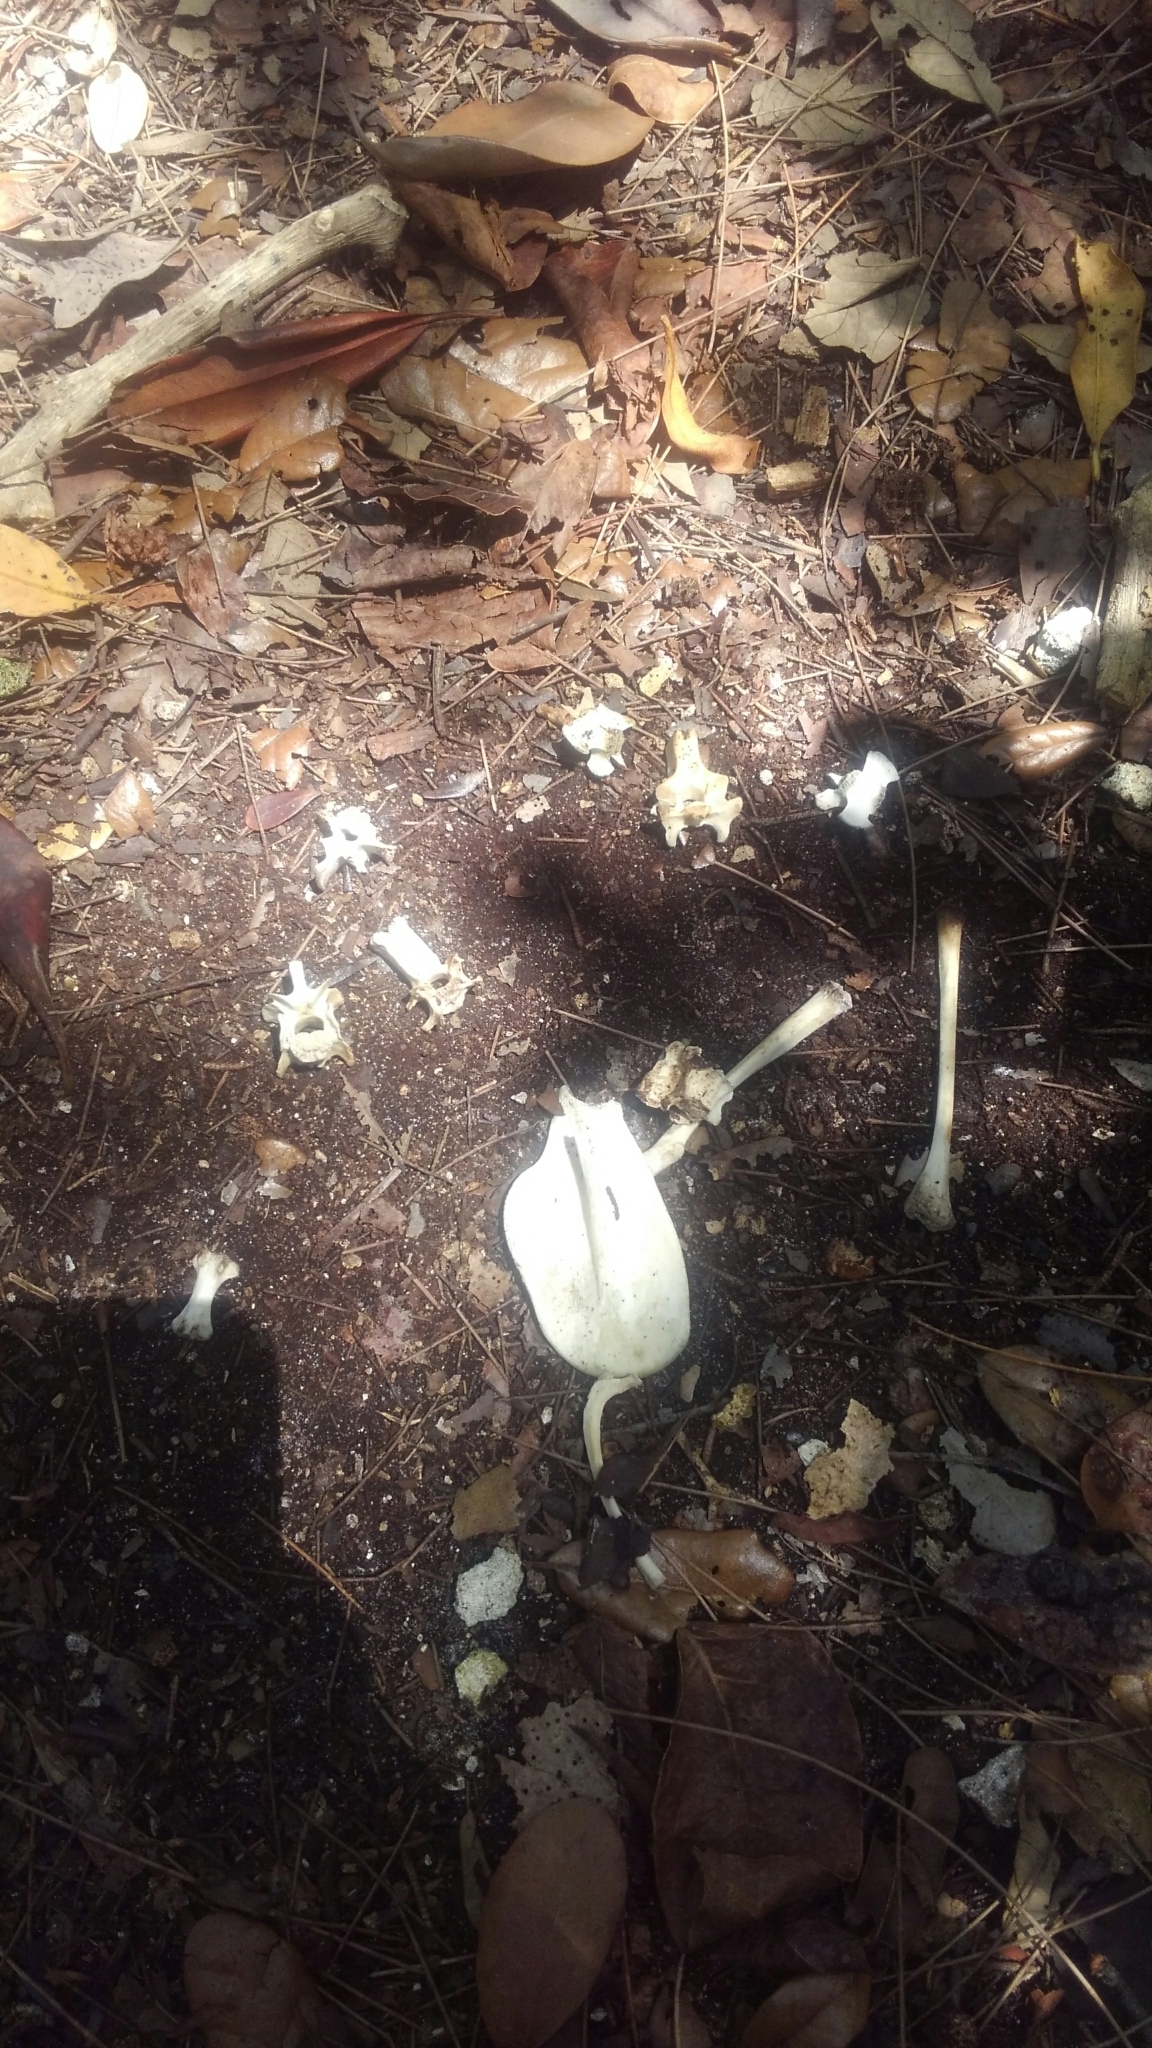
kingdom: Animalia
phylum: Chordata
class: Mammalia
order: Didelphimorphia
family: Didelphidae
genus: Didelphis
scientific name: Didelphis virginiana
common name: Virginia opossum
